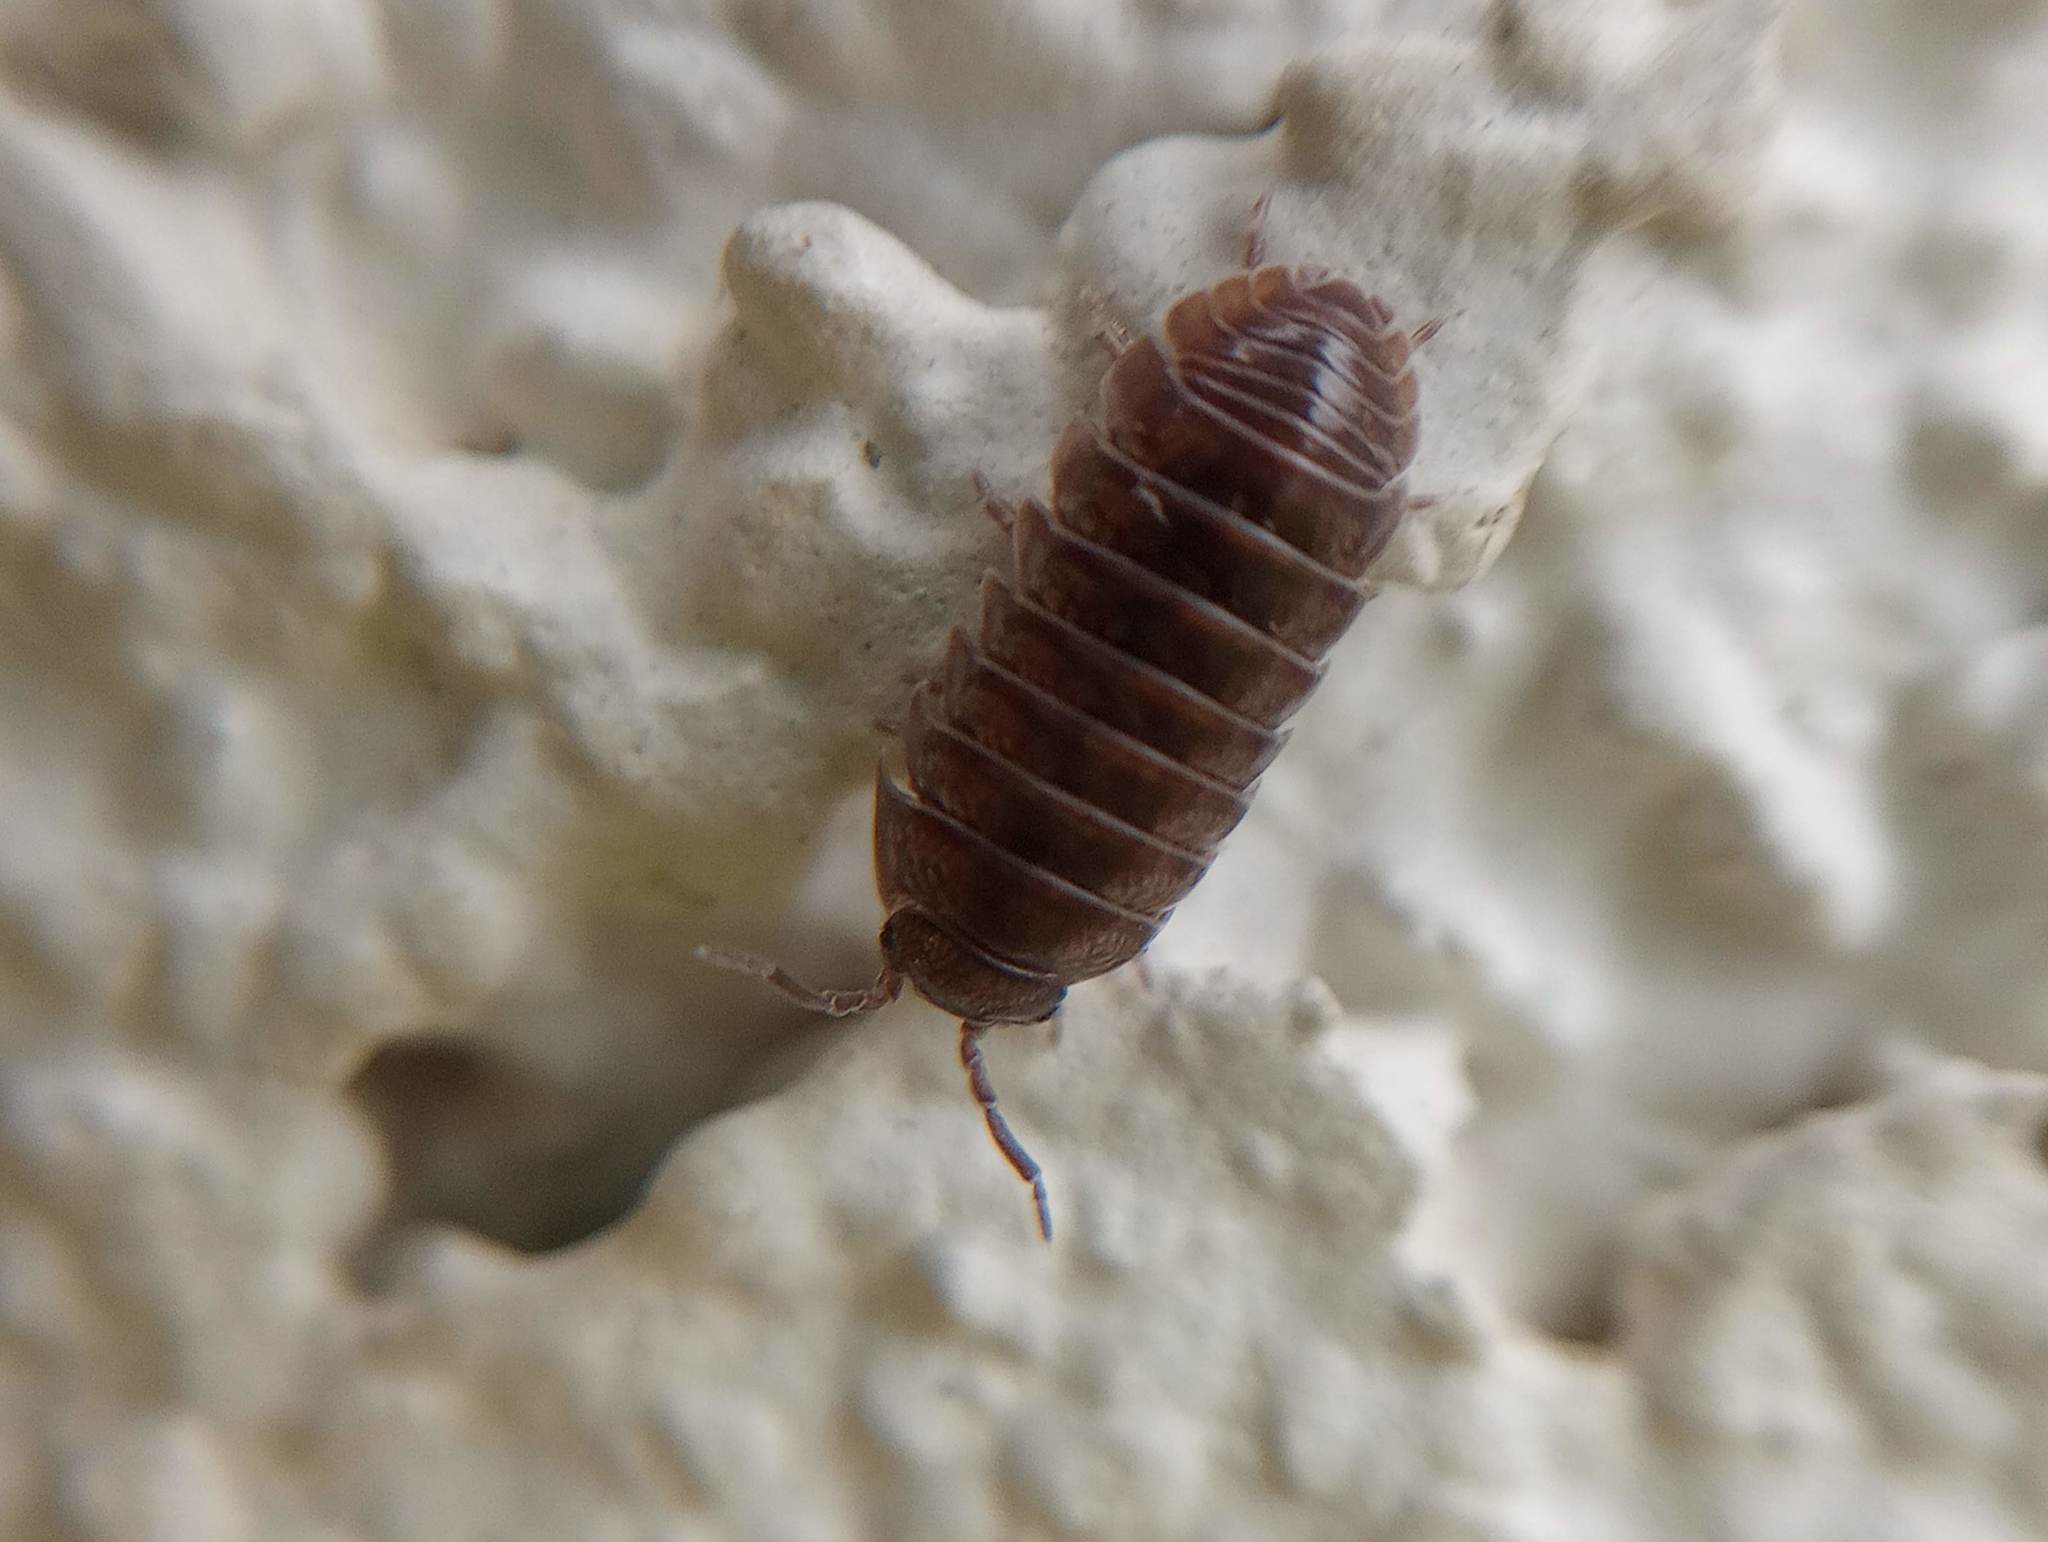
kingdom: Animalia
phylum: Arthropoda
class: Malacostraca
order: Isopoda
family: Armadillidiidae
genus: Armadillidium
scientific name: Armadillidium vulgare
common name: Common pill woodlouse
